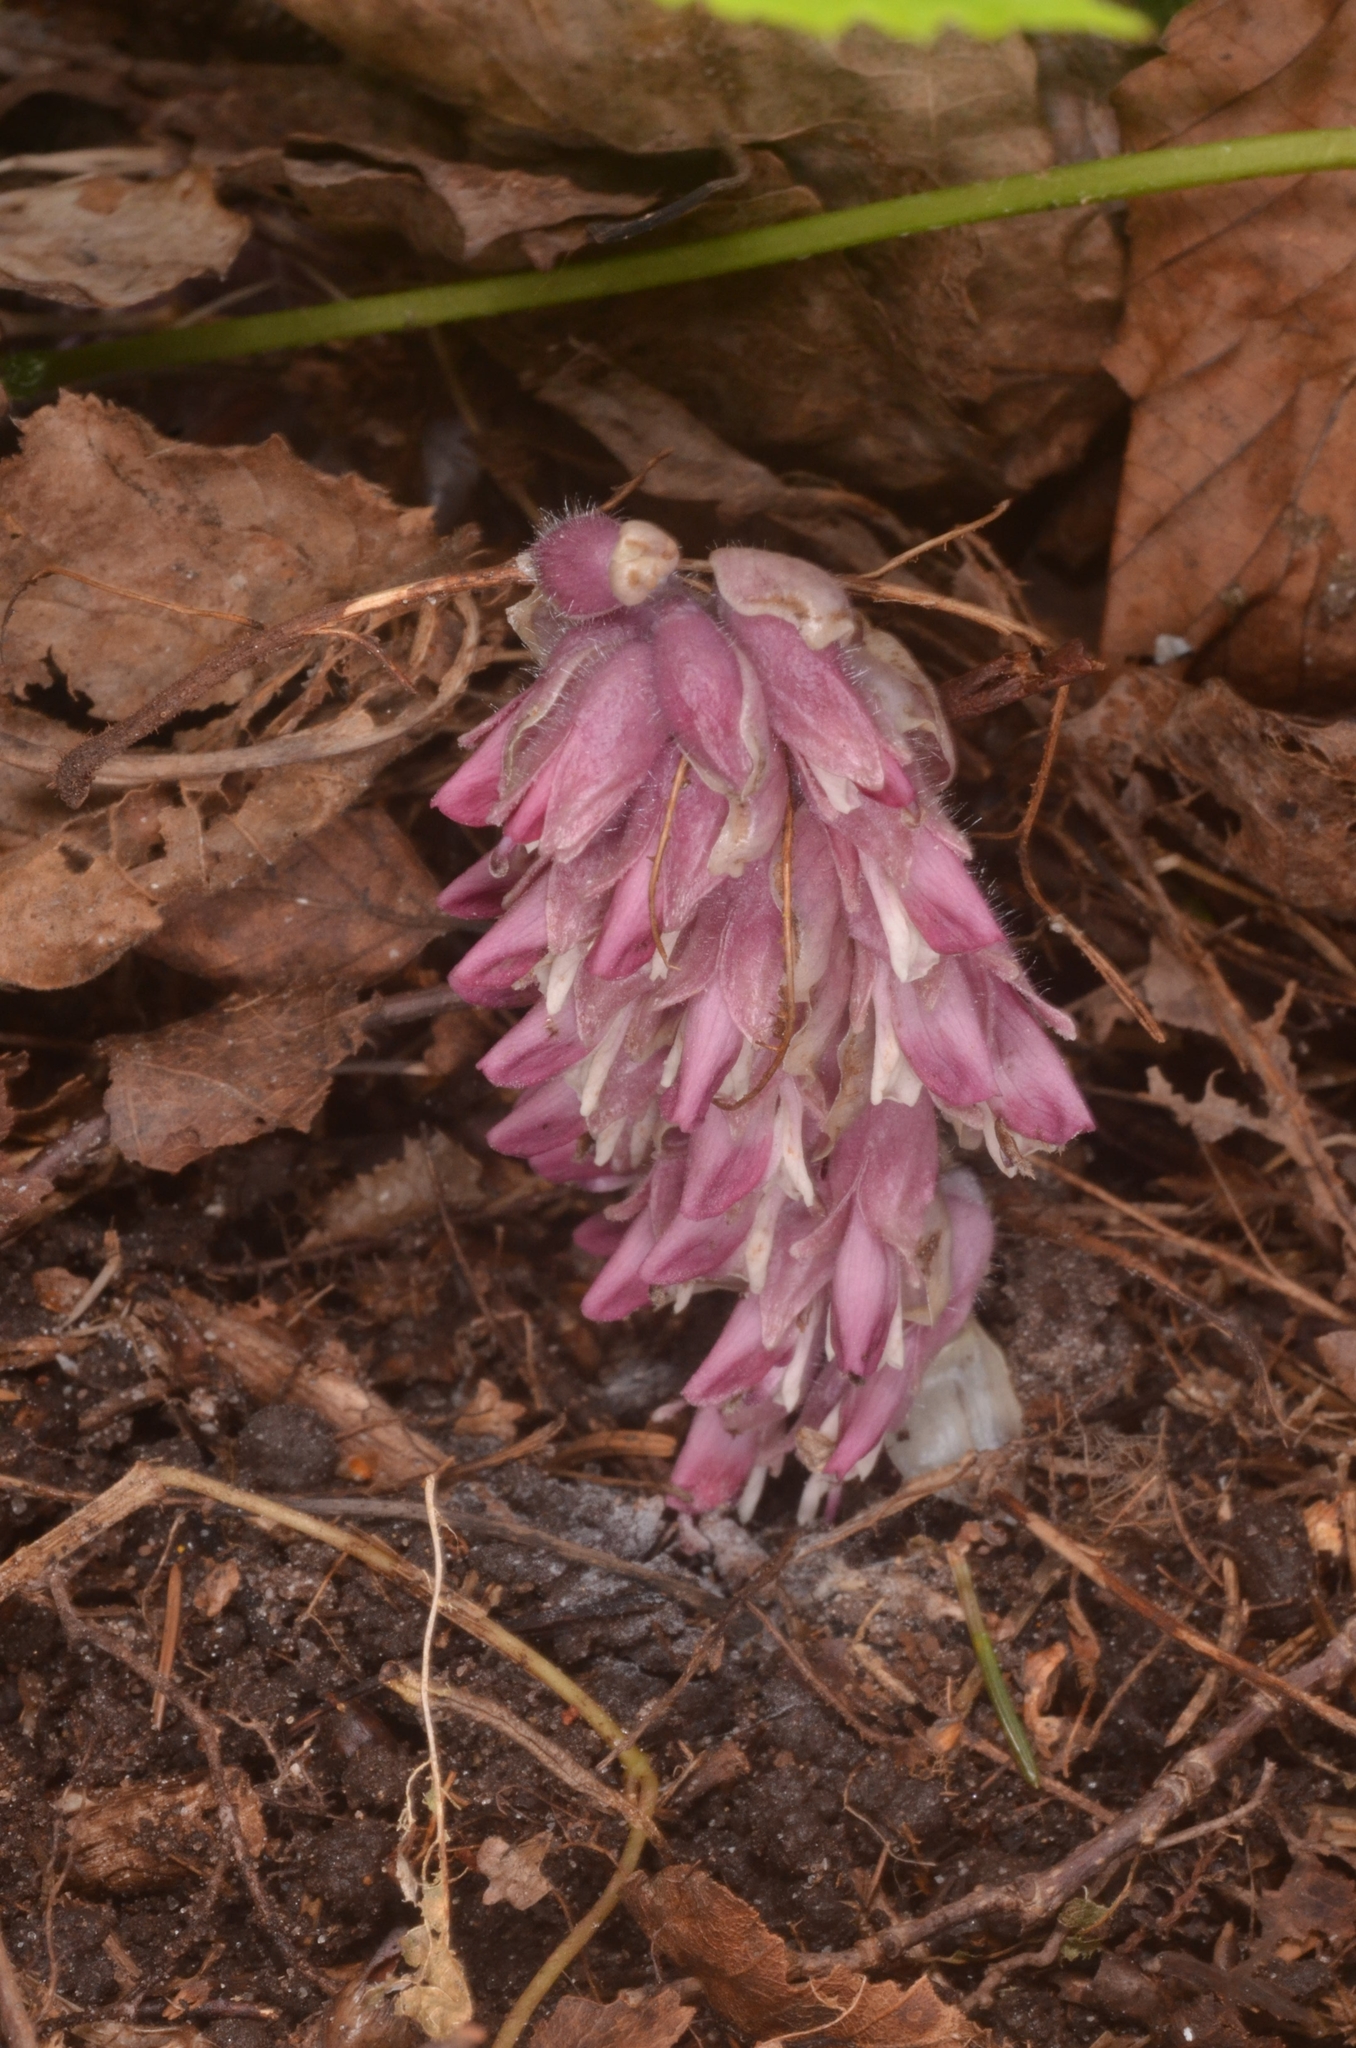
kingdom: Plantae
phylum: Tracheophyta
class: Magnoliopsida
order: Lamiales
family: Orobanchaceae
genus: Lathraea
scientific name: Lathraea squamaria
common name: Toothwort
